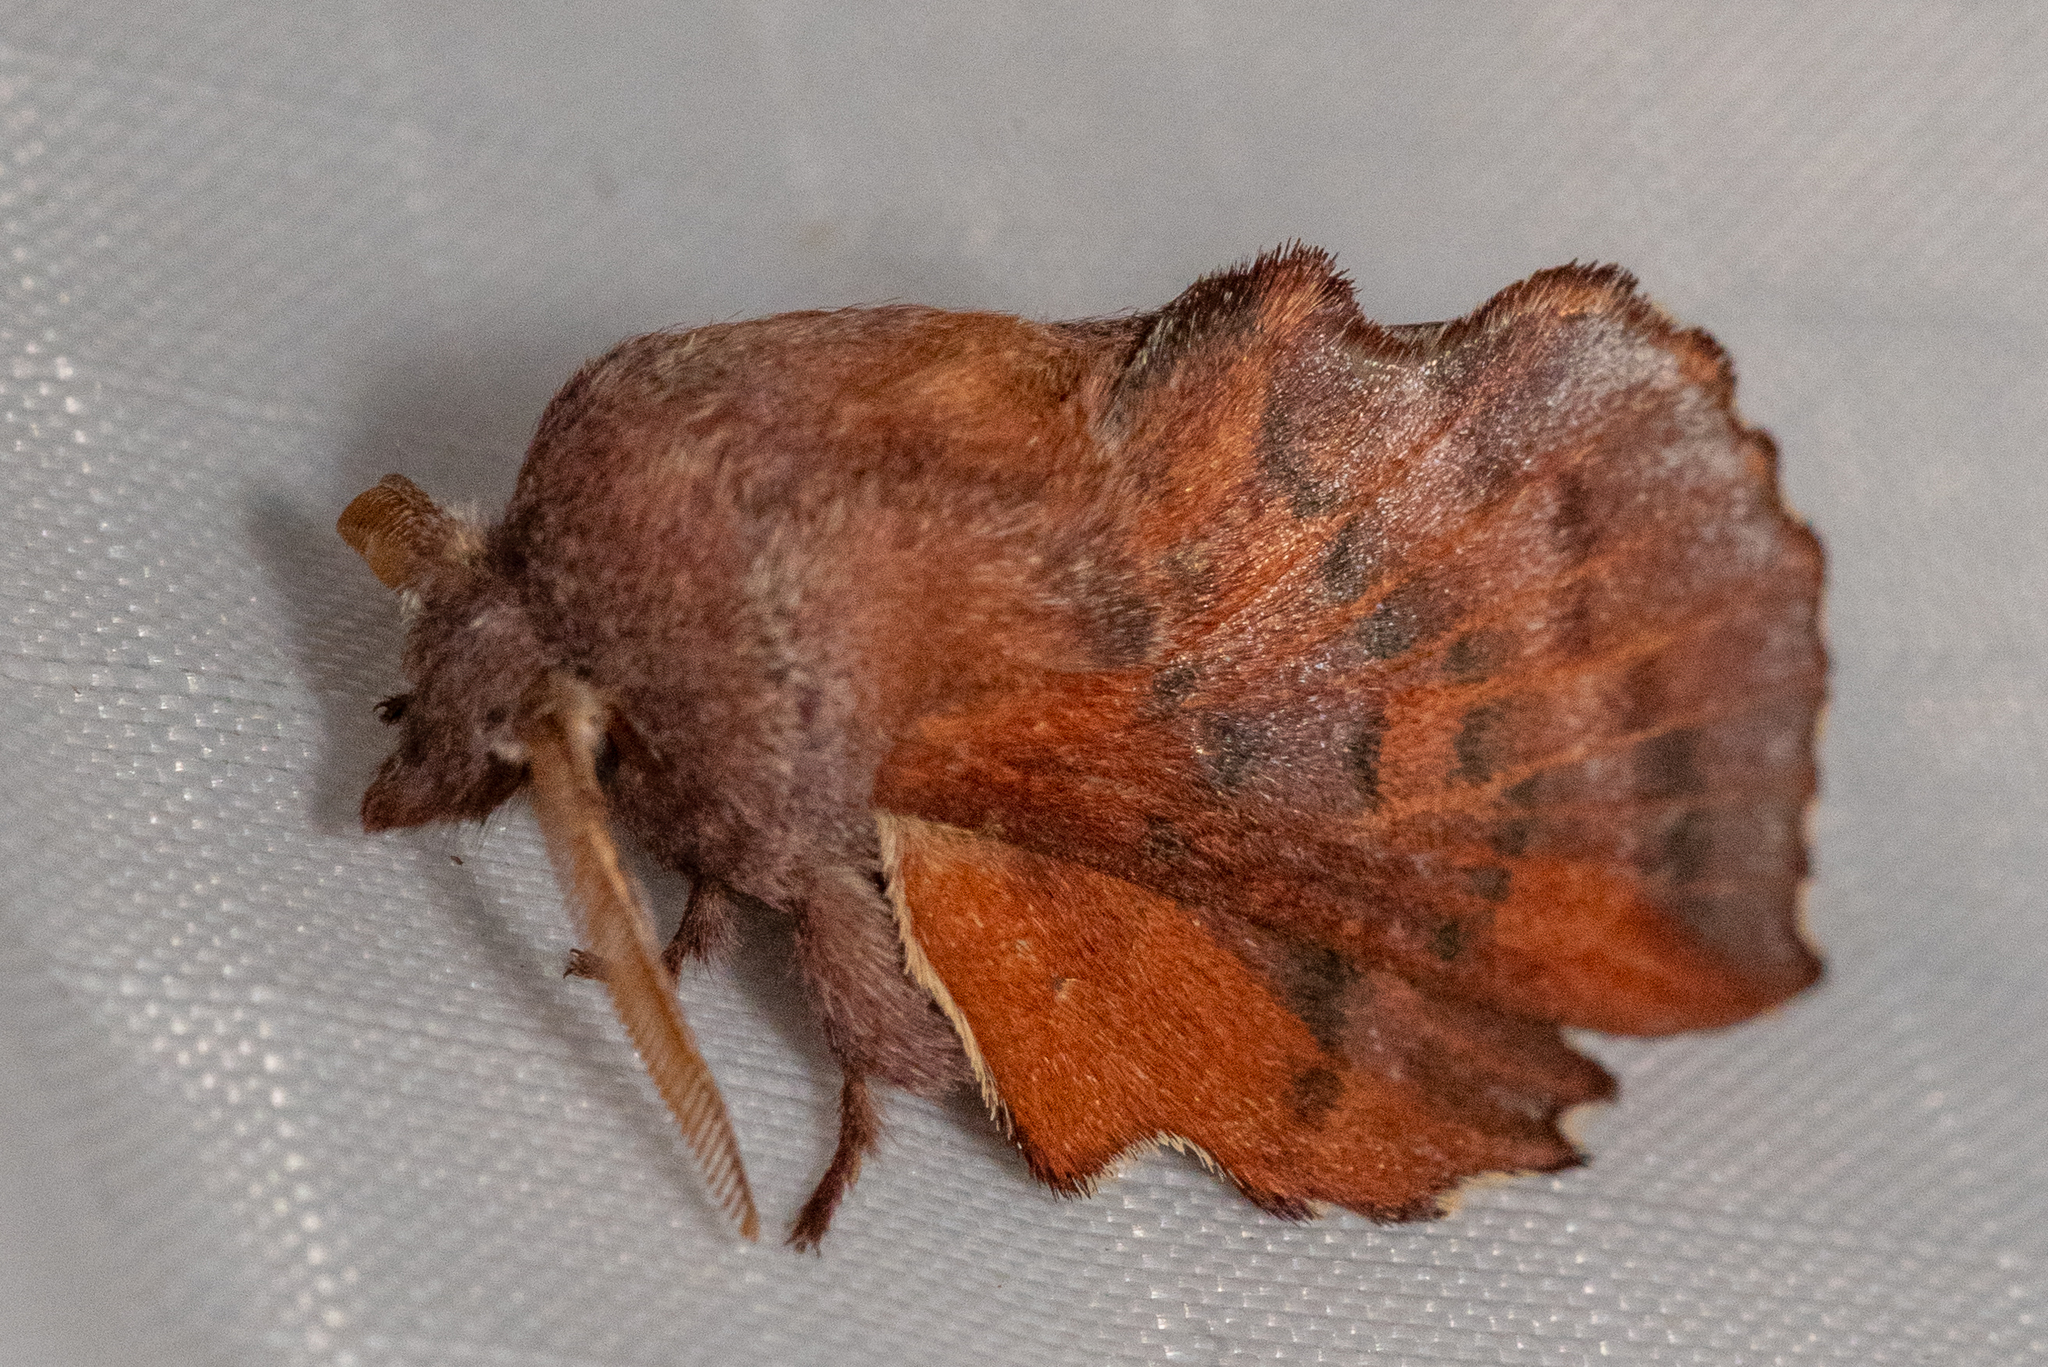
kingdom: Animalia
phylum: Arthropoda
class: Insecta
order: Lepidoptera
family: Lasiocampidae
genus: Phyllodesma
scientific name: Phyllodesma americana
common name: American lappet moth
